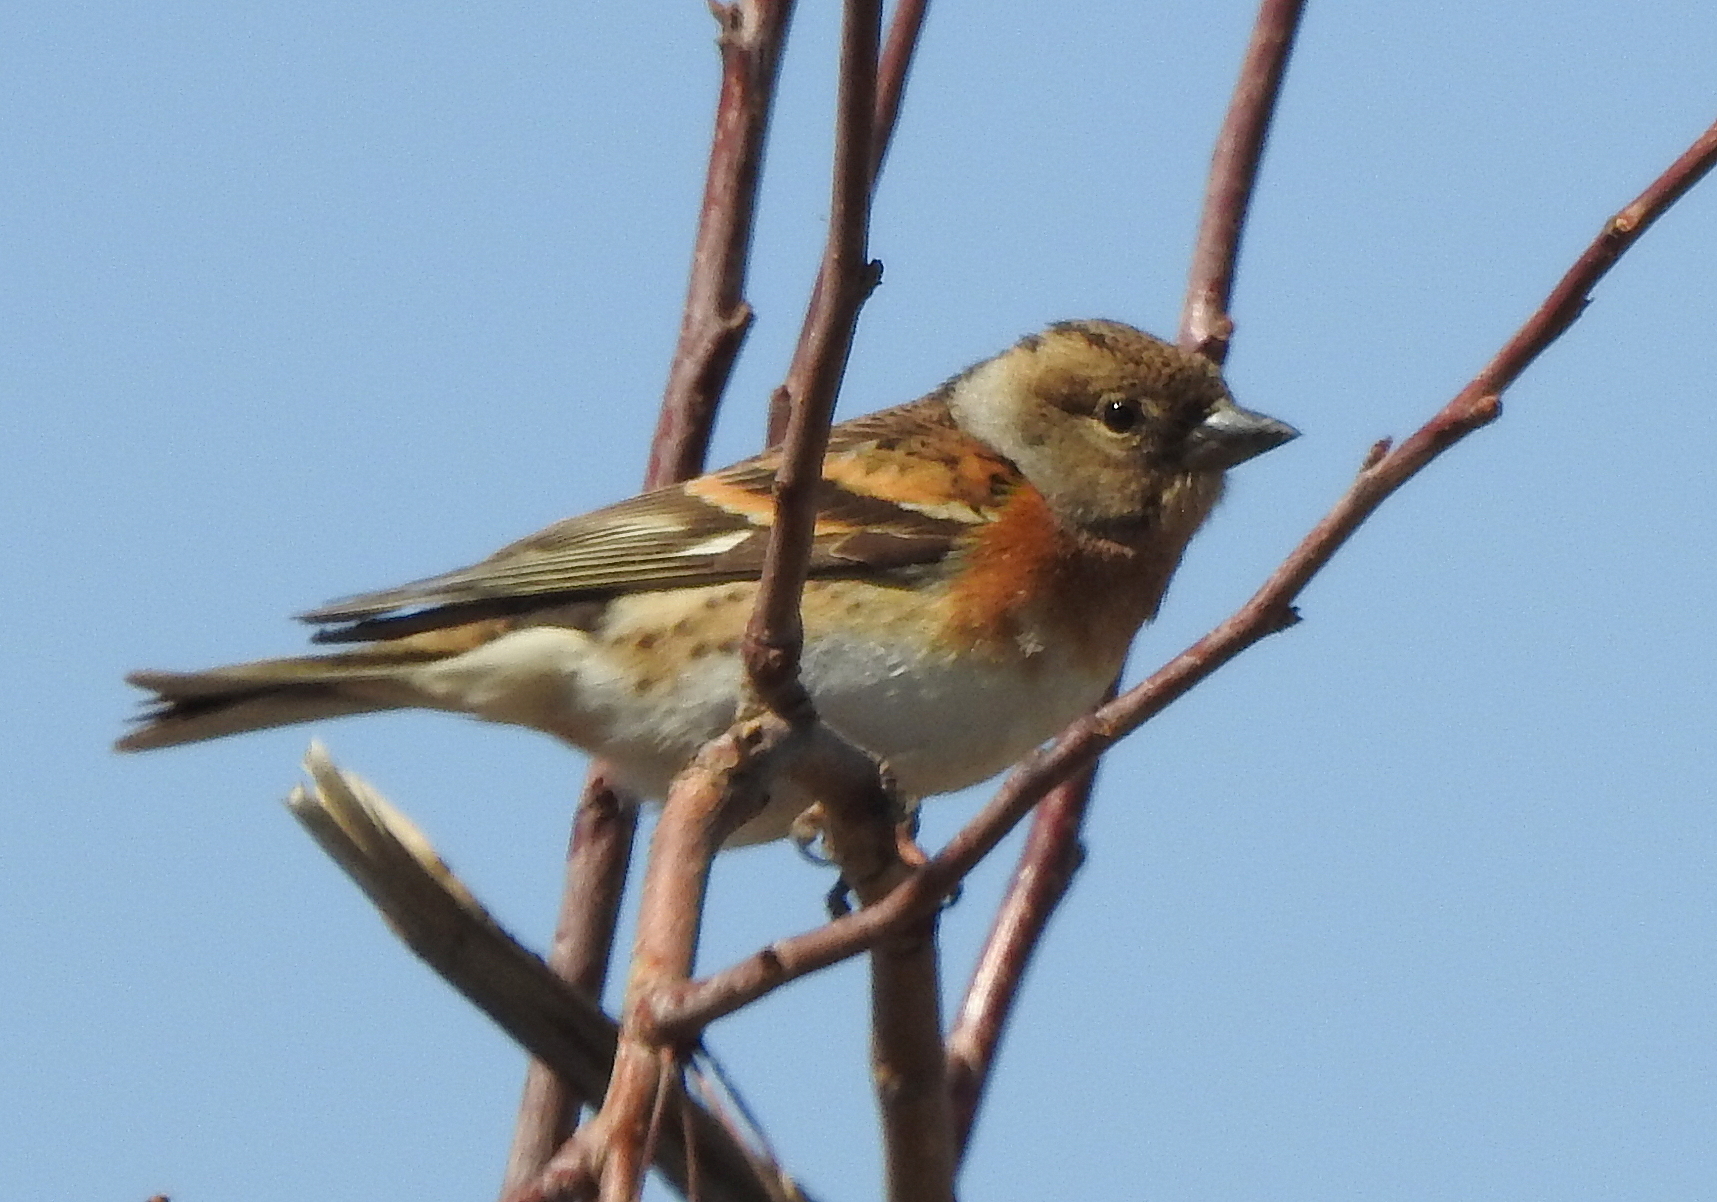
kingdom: Animalia
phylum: Chordata
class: Aves
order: Passeriformes
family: Fringillidae
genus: Fringilla
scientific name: Fringilla montifringilla
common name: Brambling
